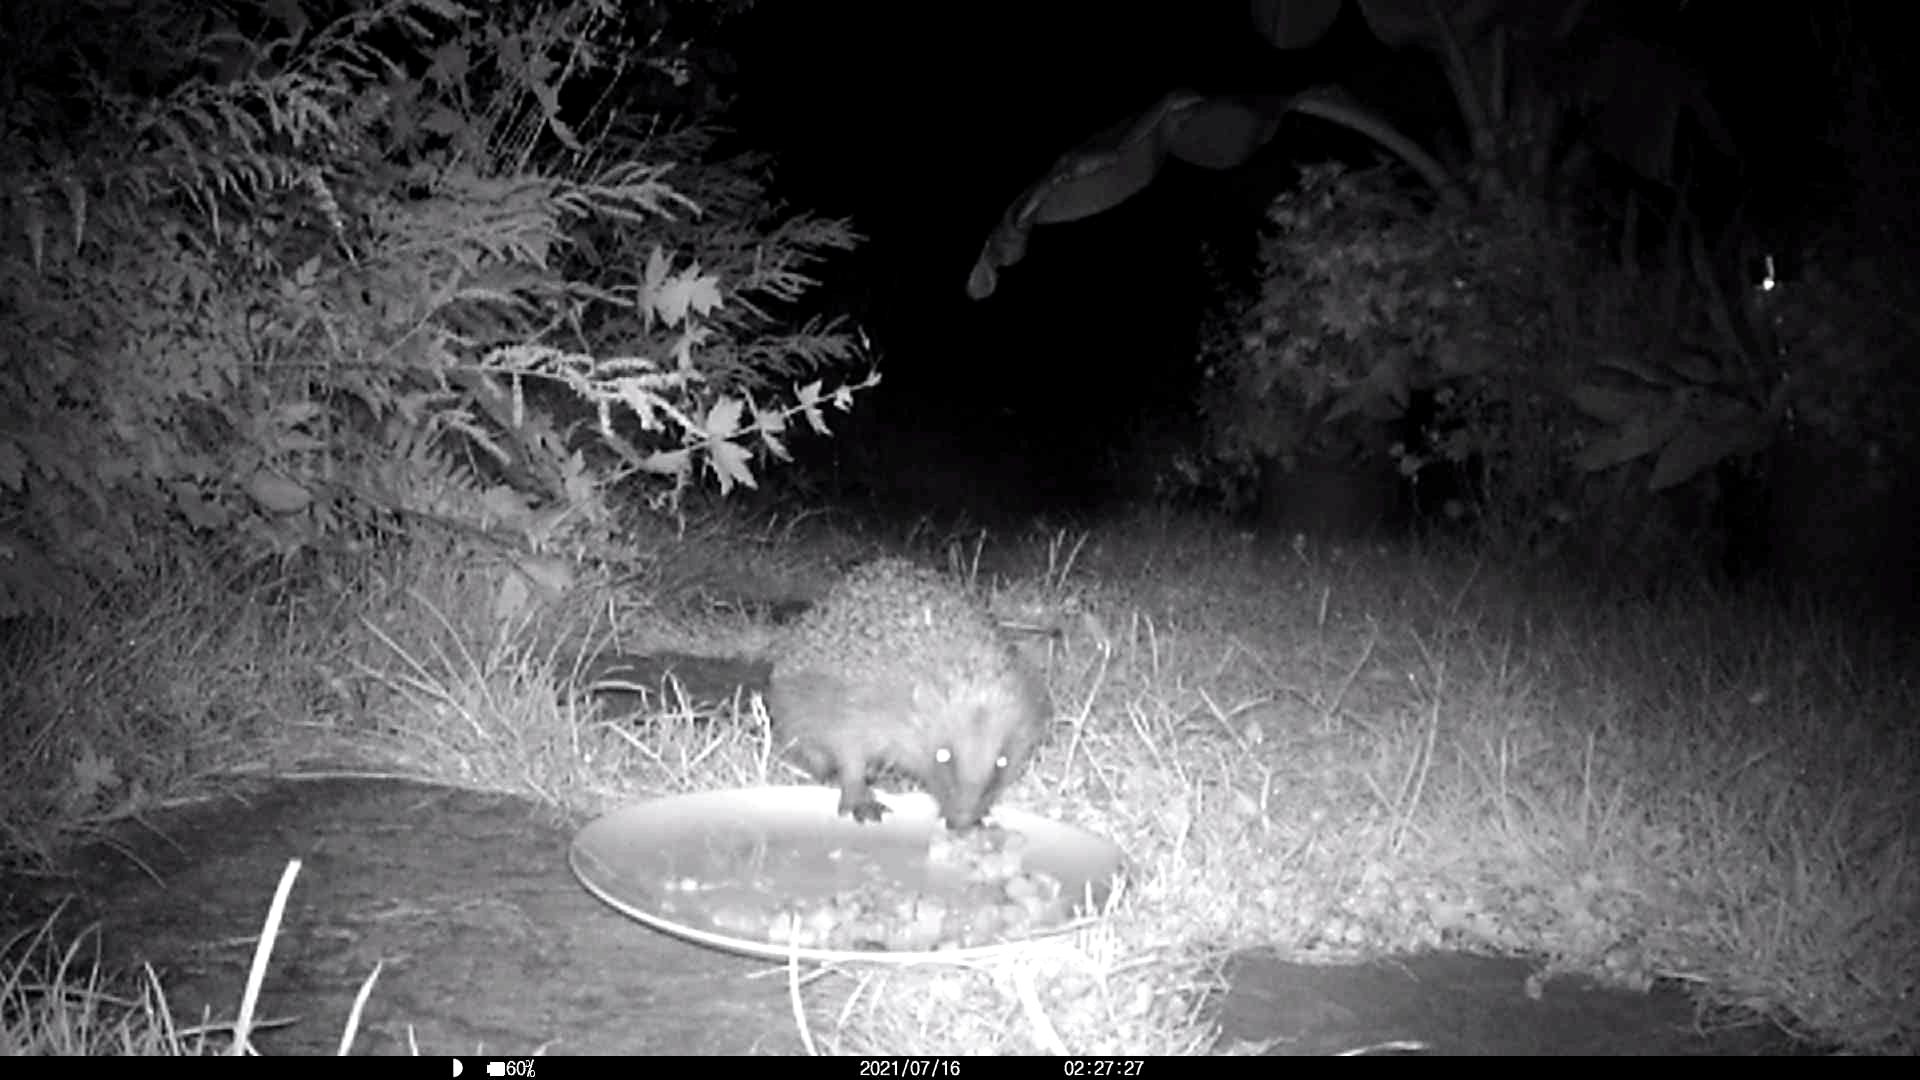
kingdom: Animalia
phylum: Chordata
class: Mammalia
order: Erinaceomorpha
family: Erinaceidae
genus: Erinaceus
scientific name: Erinaceus europaeus
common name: West european hedgehog
